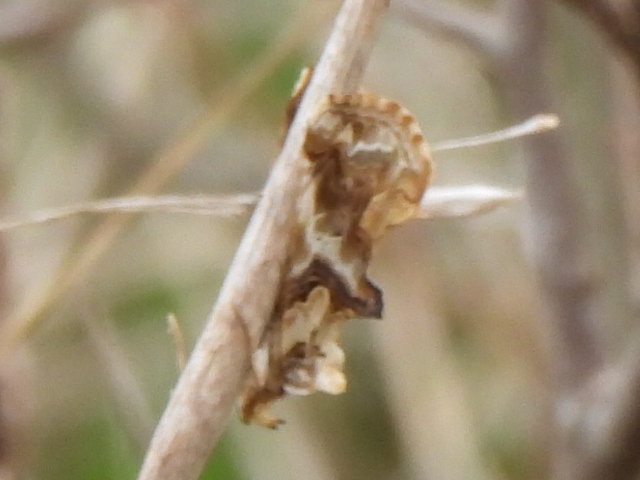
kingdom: Animalia
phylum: Arthropoda
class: Insecta
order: Lepidoptera
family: Erebidae
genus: Plusiodonta
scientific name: Plusiodonta compressipalpis
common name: Moonseed moth
